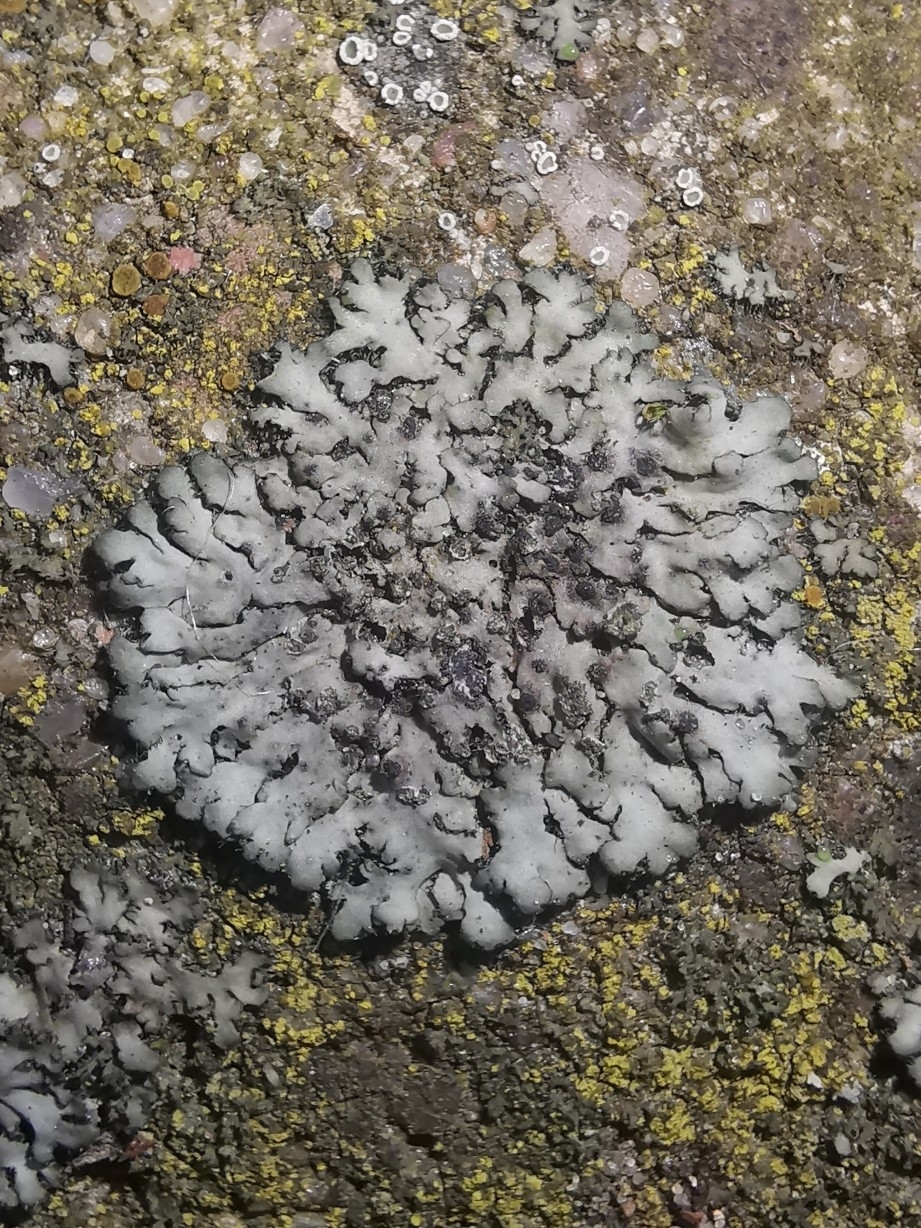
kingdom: Fungi
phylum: Ascomycota
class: Lecanoromycetes
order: Caliciales
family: Physciaceae
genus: Phaeophyscia
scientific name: Phaeophyscia orbicularis
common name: Mealy shadow lichen
